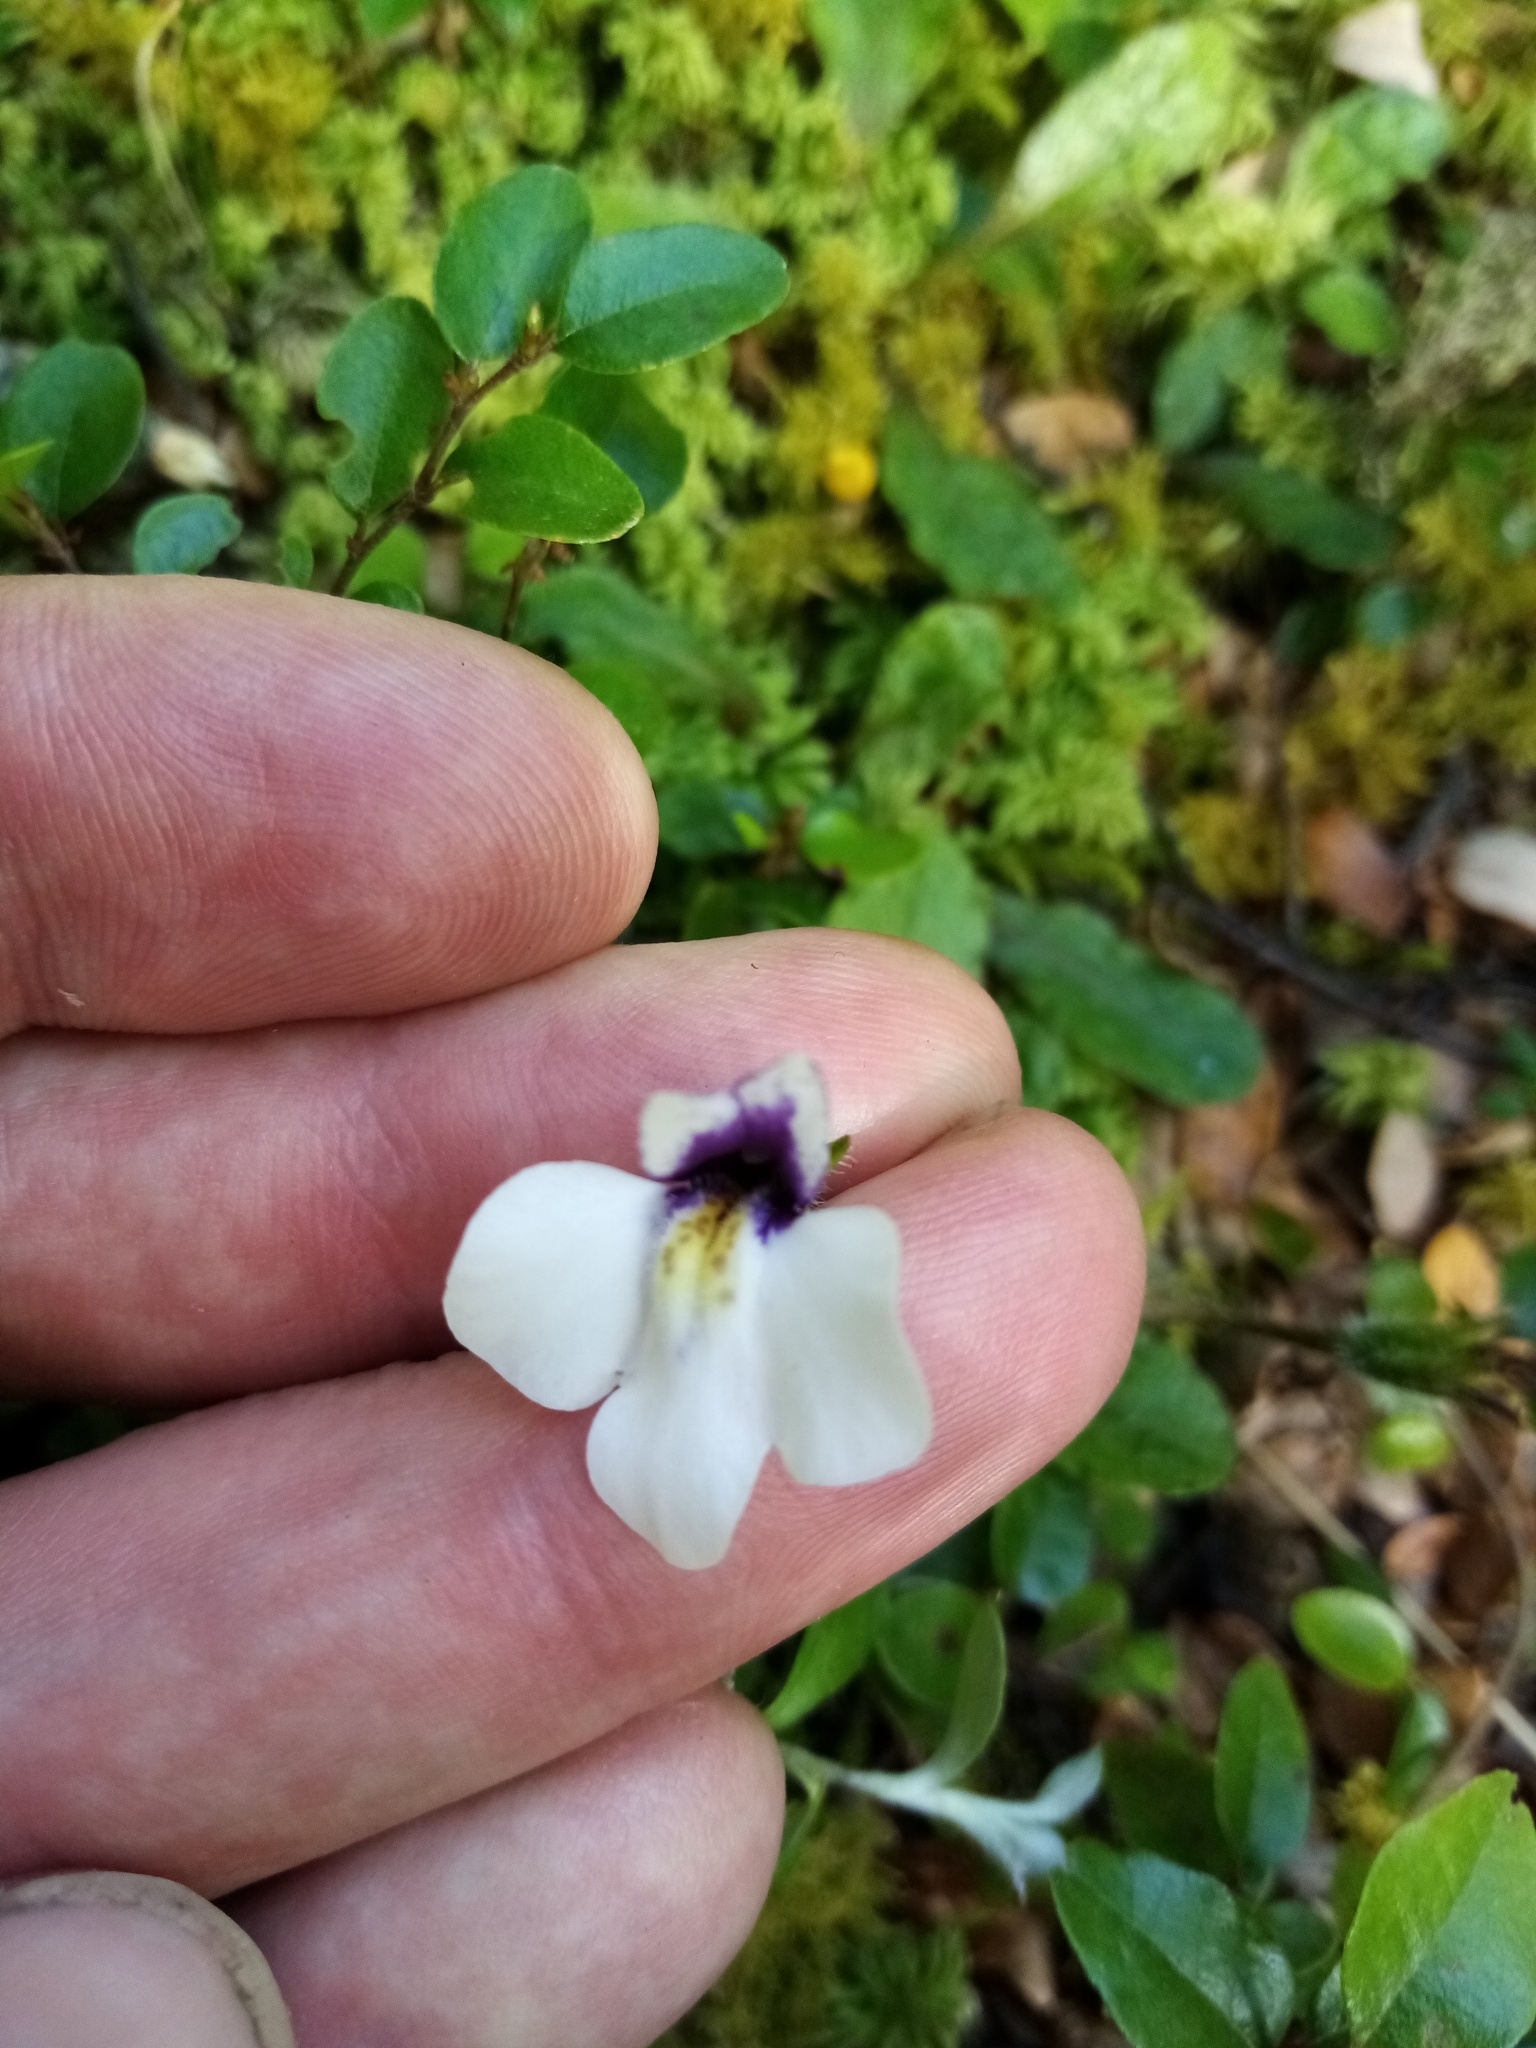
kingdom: Plantae
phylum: Tracheophyta
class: Magnoliopsida
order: Lamiales
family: Mazaceae
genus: Mazus
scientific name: Mazus radicans
